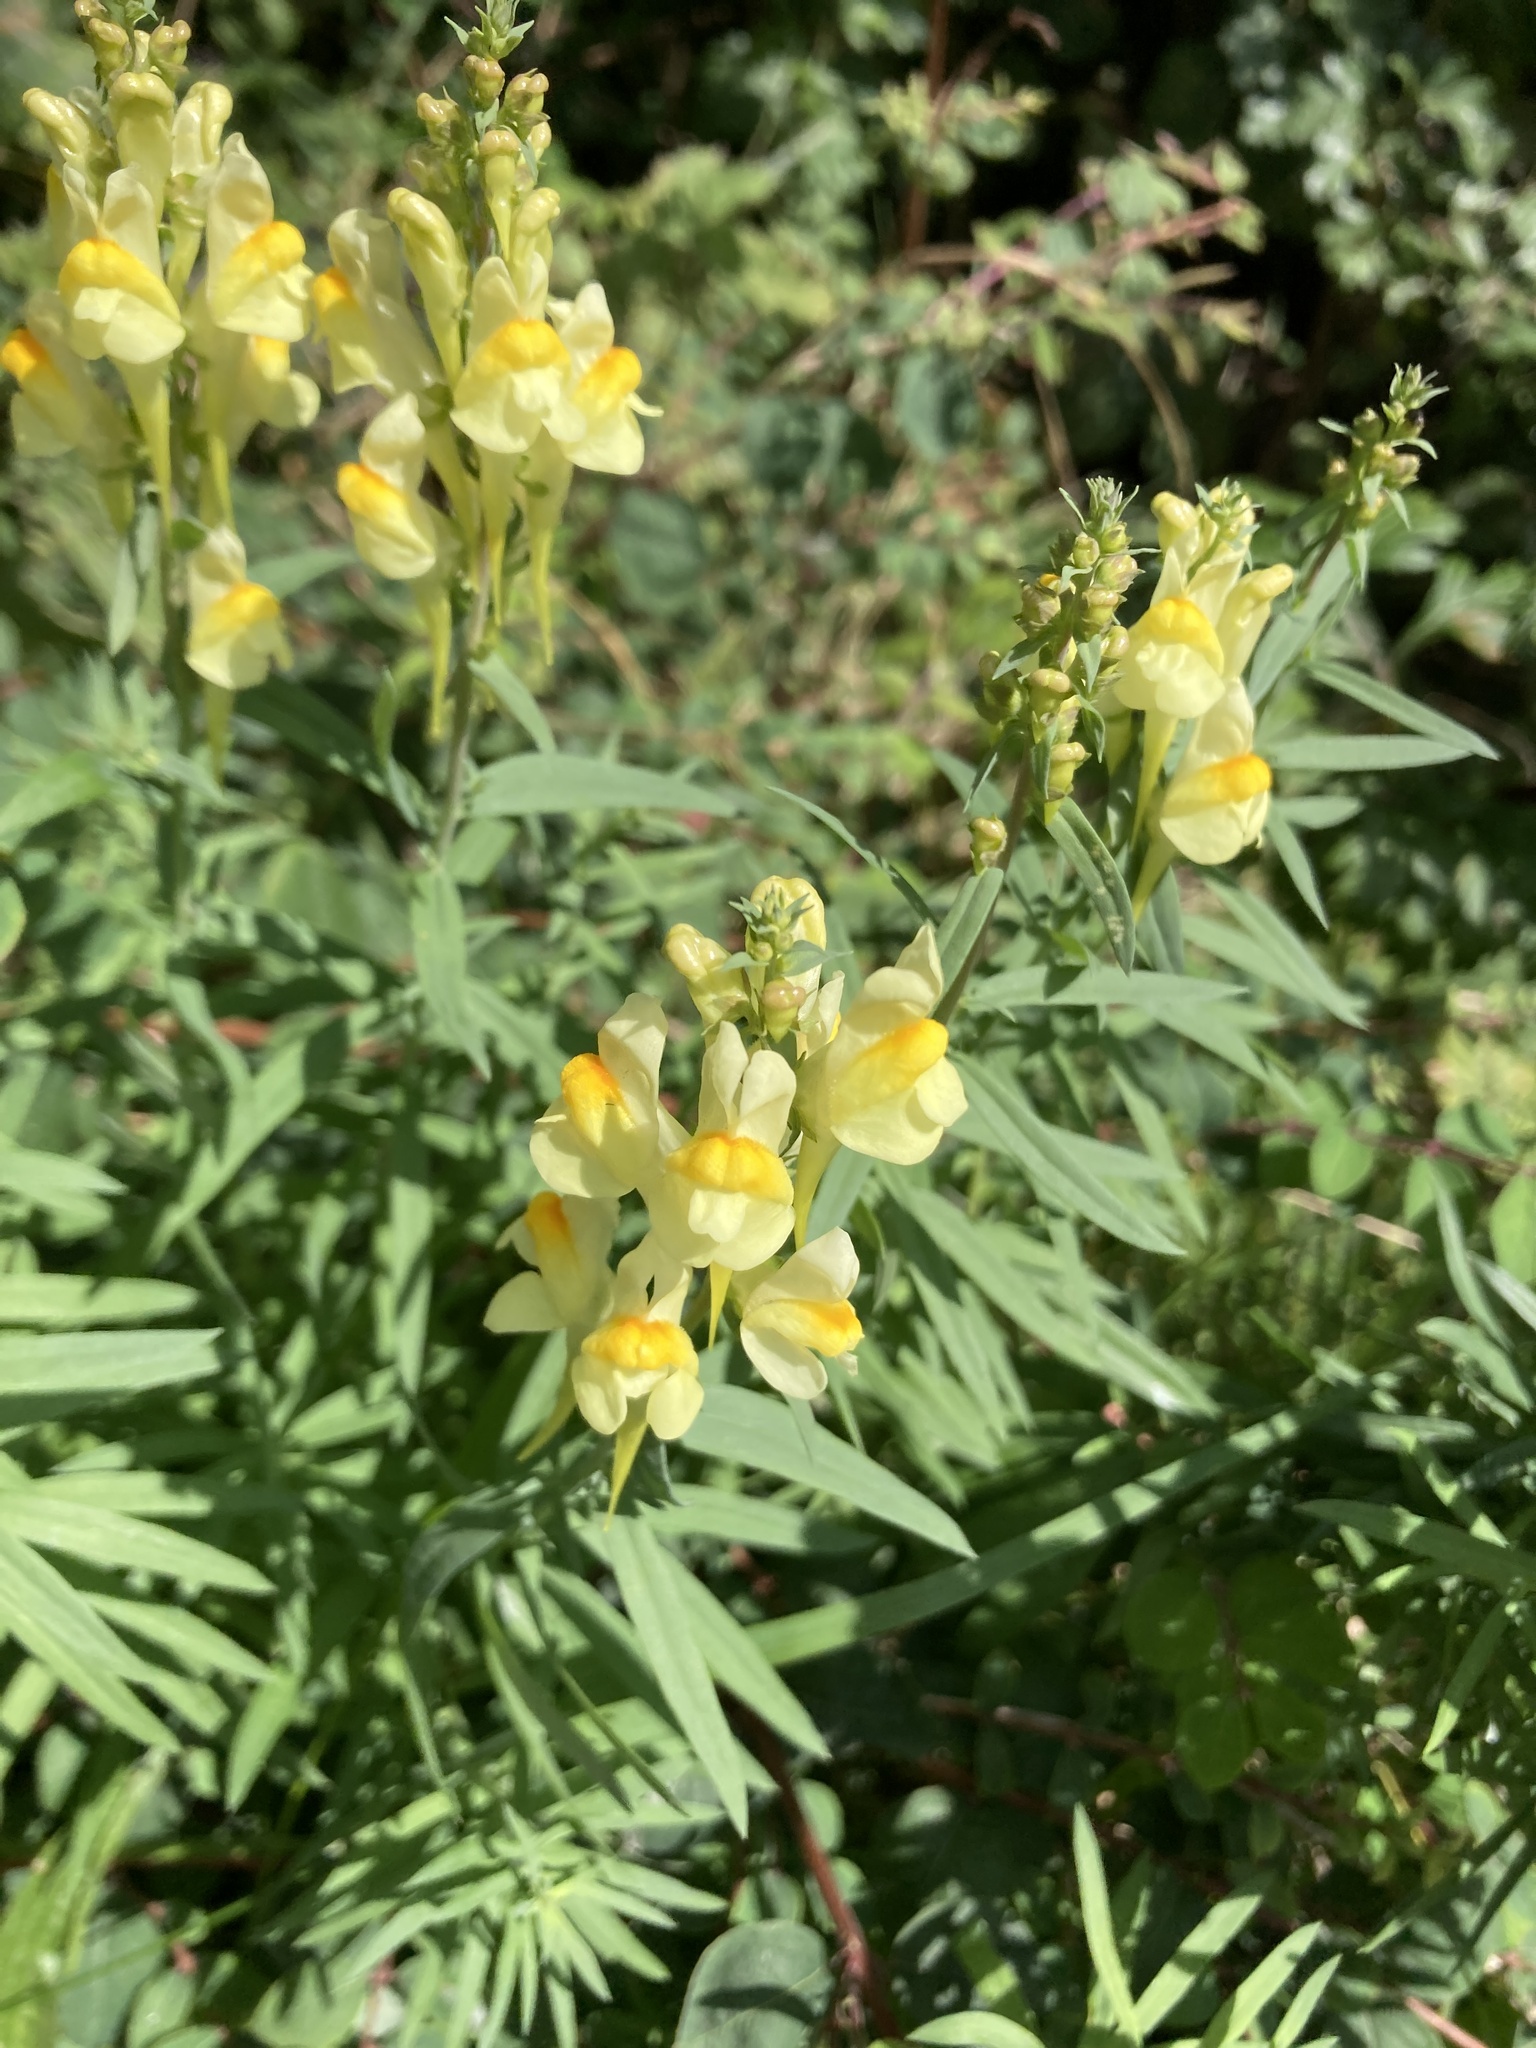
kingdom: Plantae
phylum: Tracheophyta
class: Magnoliopsida
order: Lamiales
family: Plantaginaceae
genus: Linaria
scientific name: Linaria vulgaris
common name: Butter and eggs
